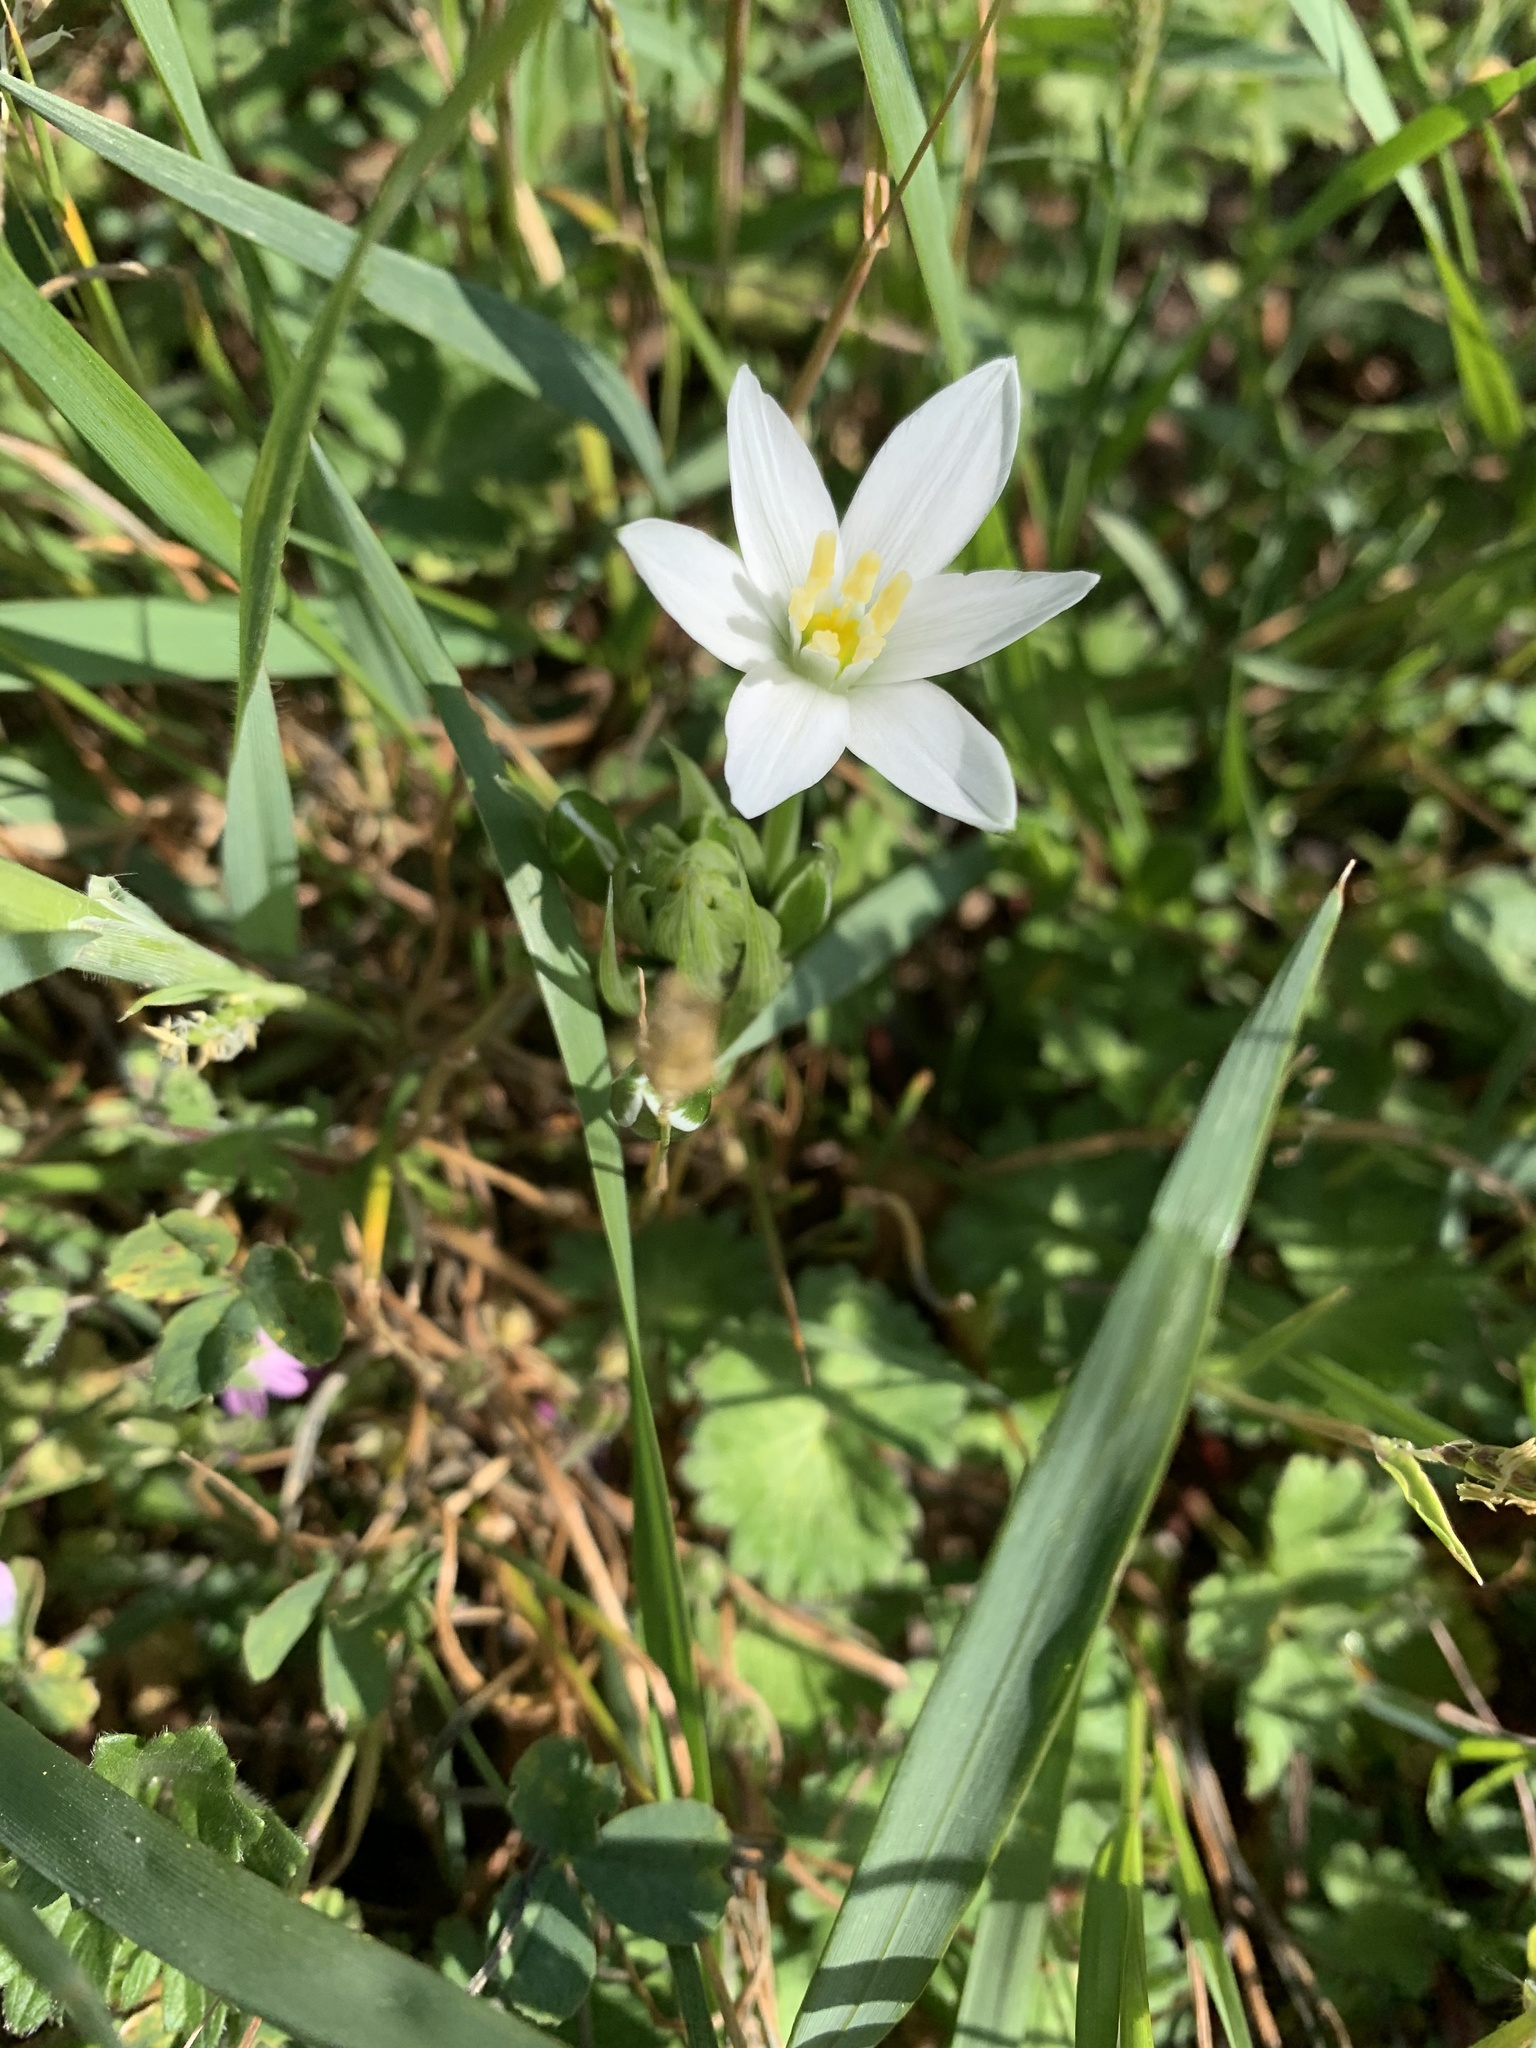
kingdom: Plantae
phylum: Tracheophyta
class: Liliopsida
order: Asparagales
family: Asparagaceae
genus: Ornithogalum
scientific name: Ornithogalum
